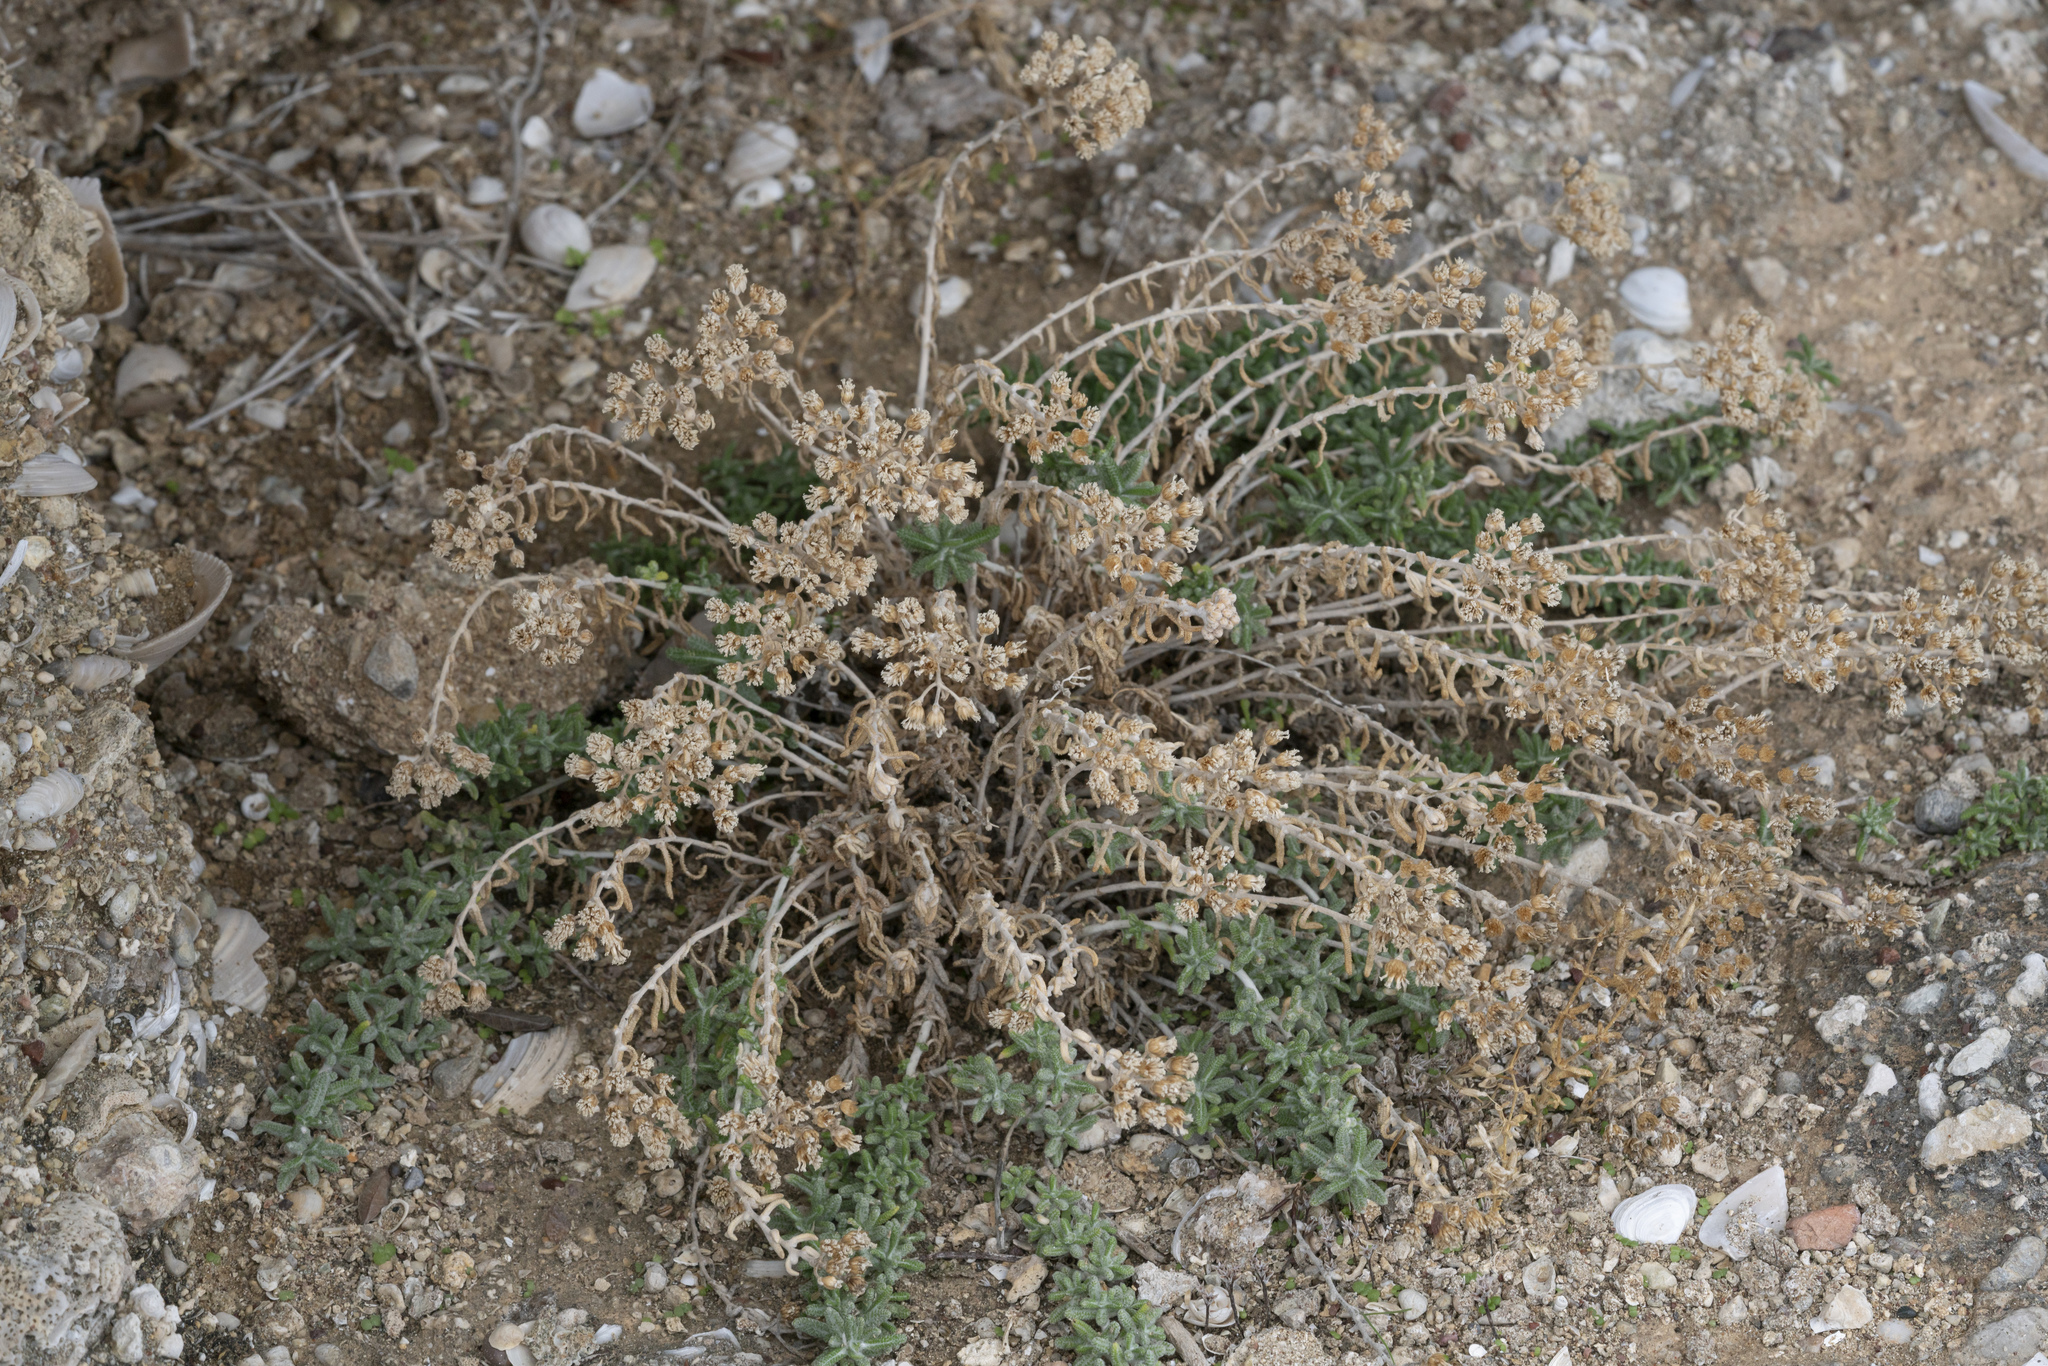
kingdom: Plantae
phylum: Tracheophyta
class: Magnoliopsida
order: Asterales
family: Asteraceae
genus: Achillea
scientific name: Achillea cretica
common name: Chamomile-leaved lavender-cotton
